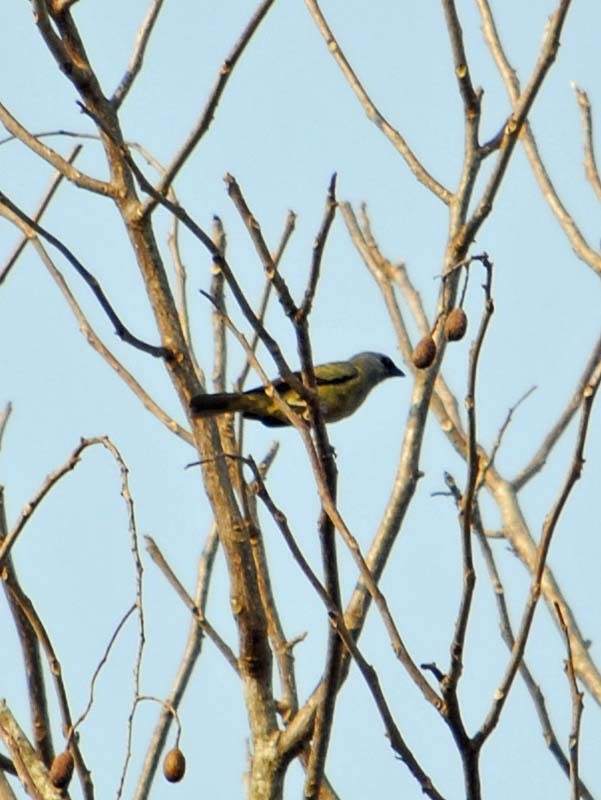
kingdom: Animalia
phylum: Chordata
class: Aves
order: Passeriformes
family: Thraupidae
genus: Thraupis
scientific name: Thraupis abbas
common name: Yellow-winged tanager
